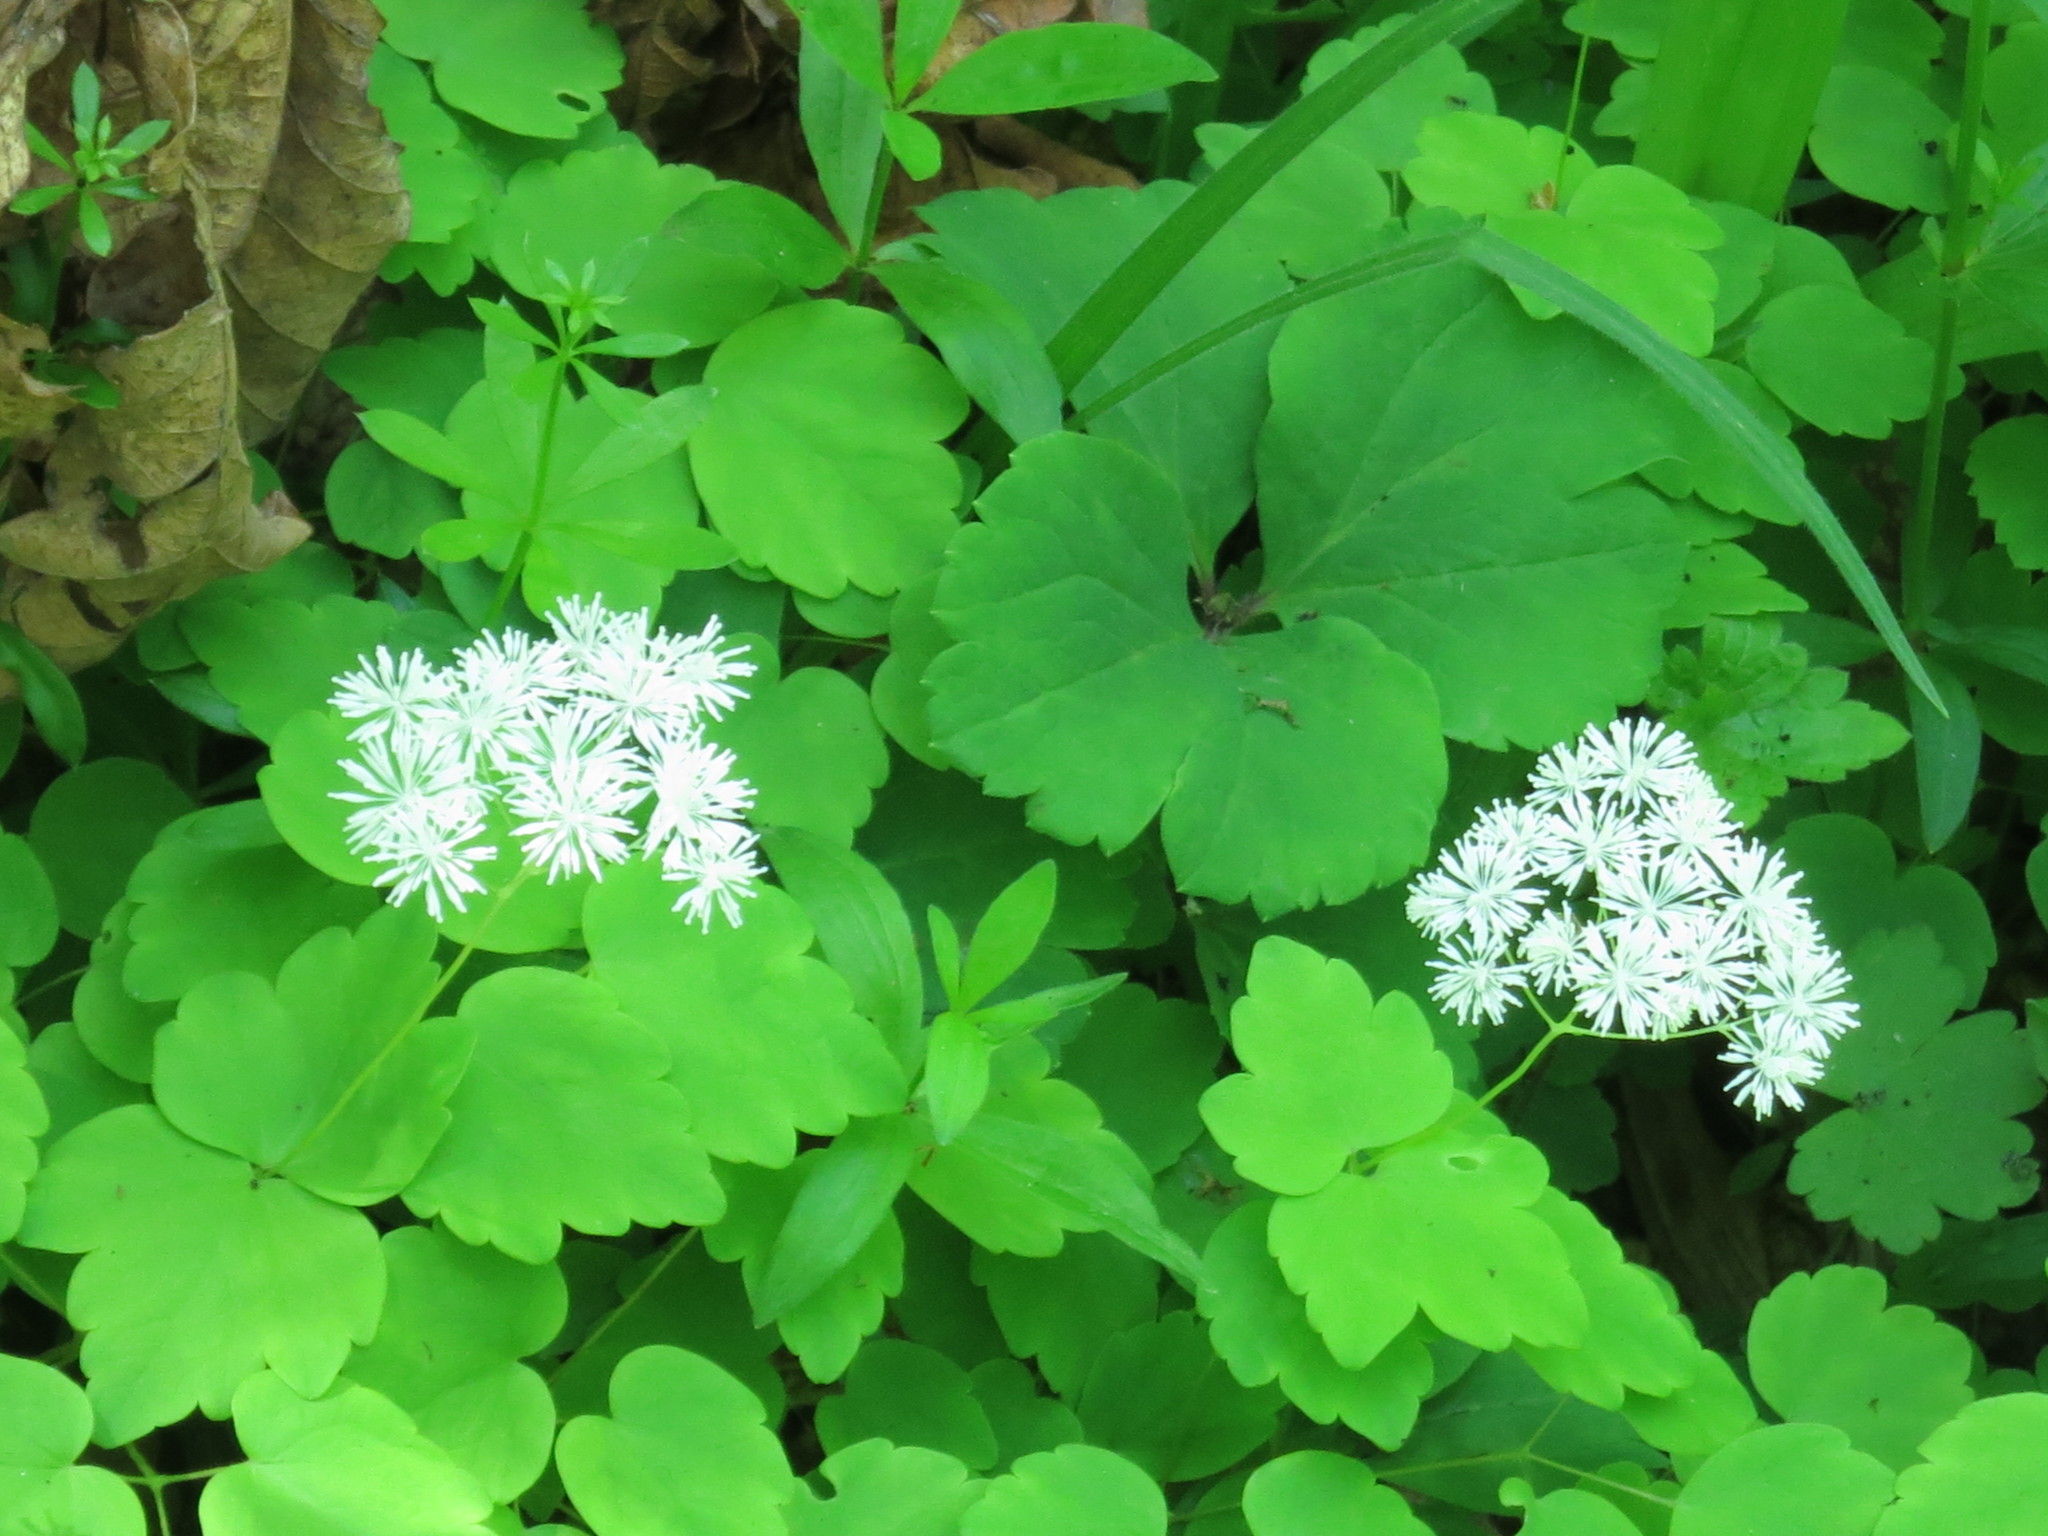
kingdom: Plantae
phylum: Tracheophyta
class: Magnoliopsida
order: Ranunculales
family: Ranunculaceae
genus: Thalictrum
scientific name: Thalictrum filamentosum
